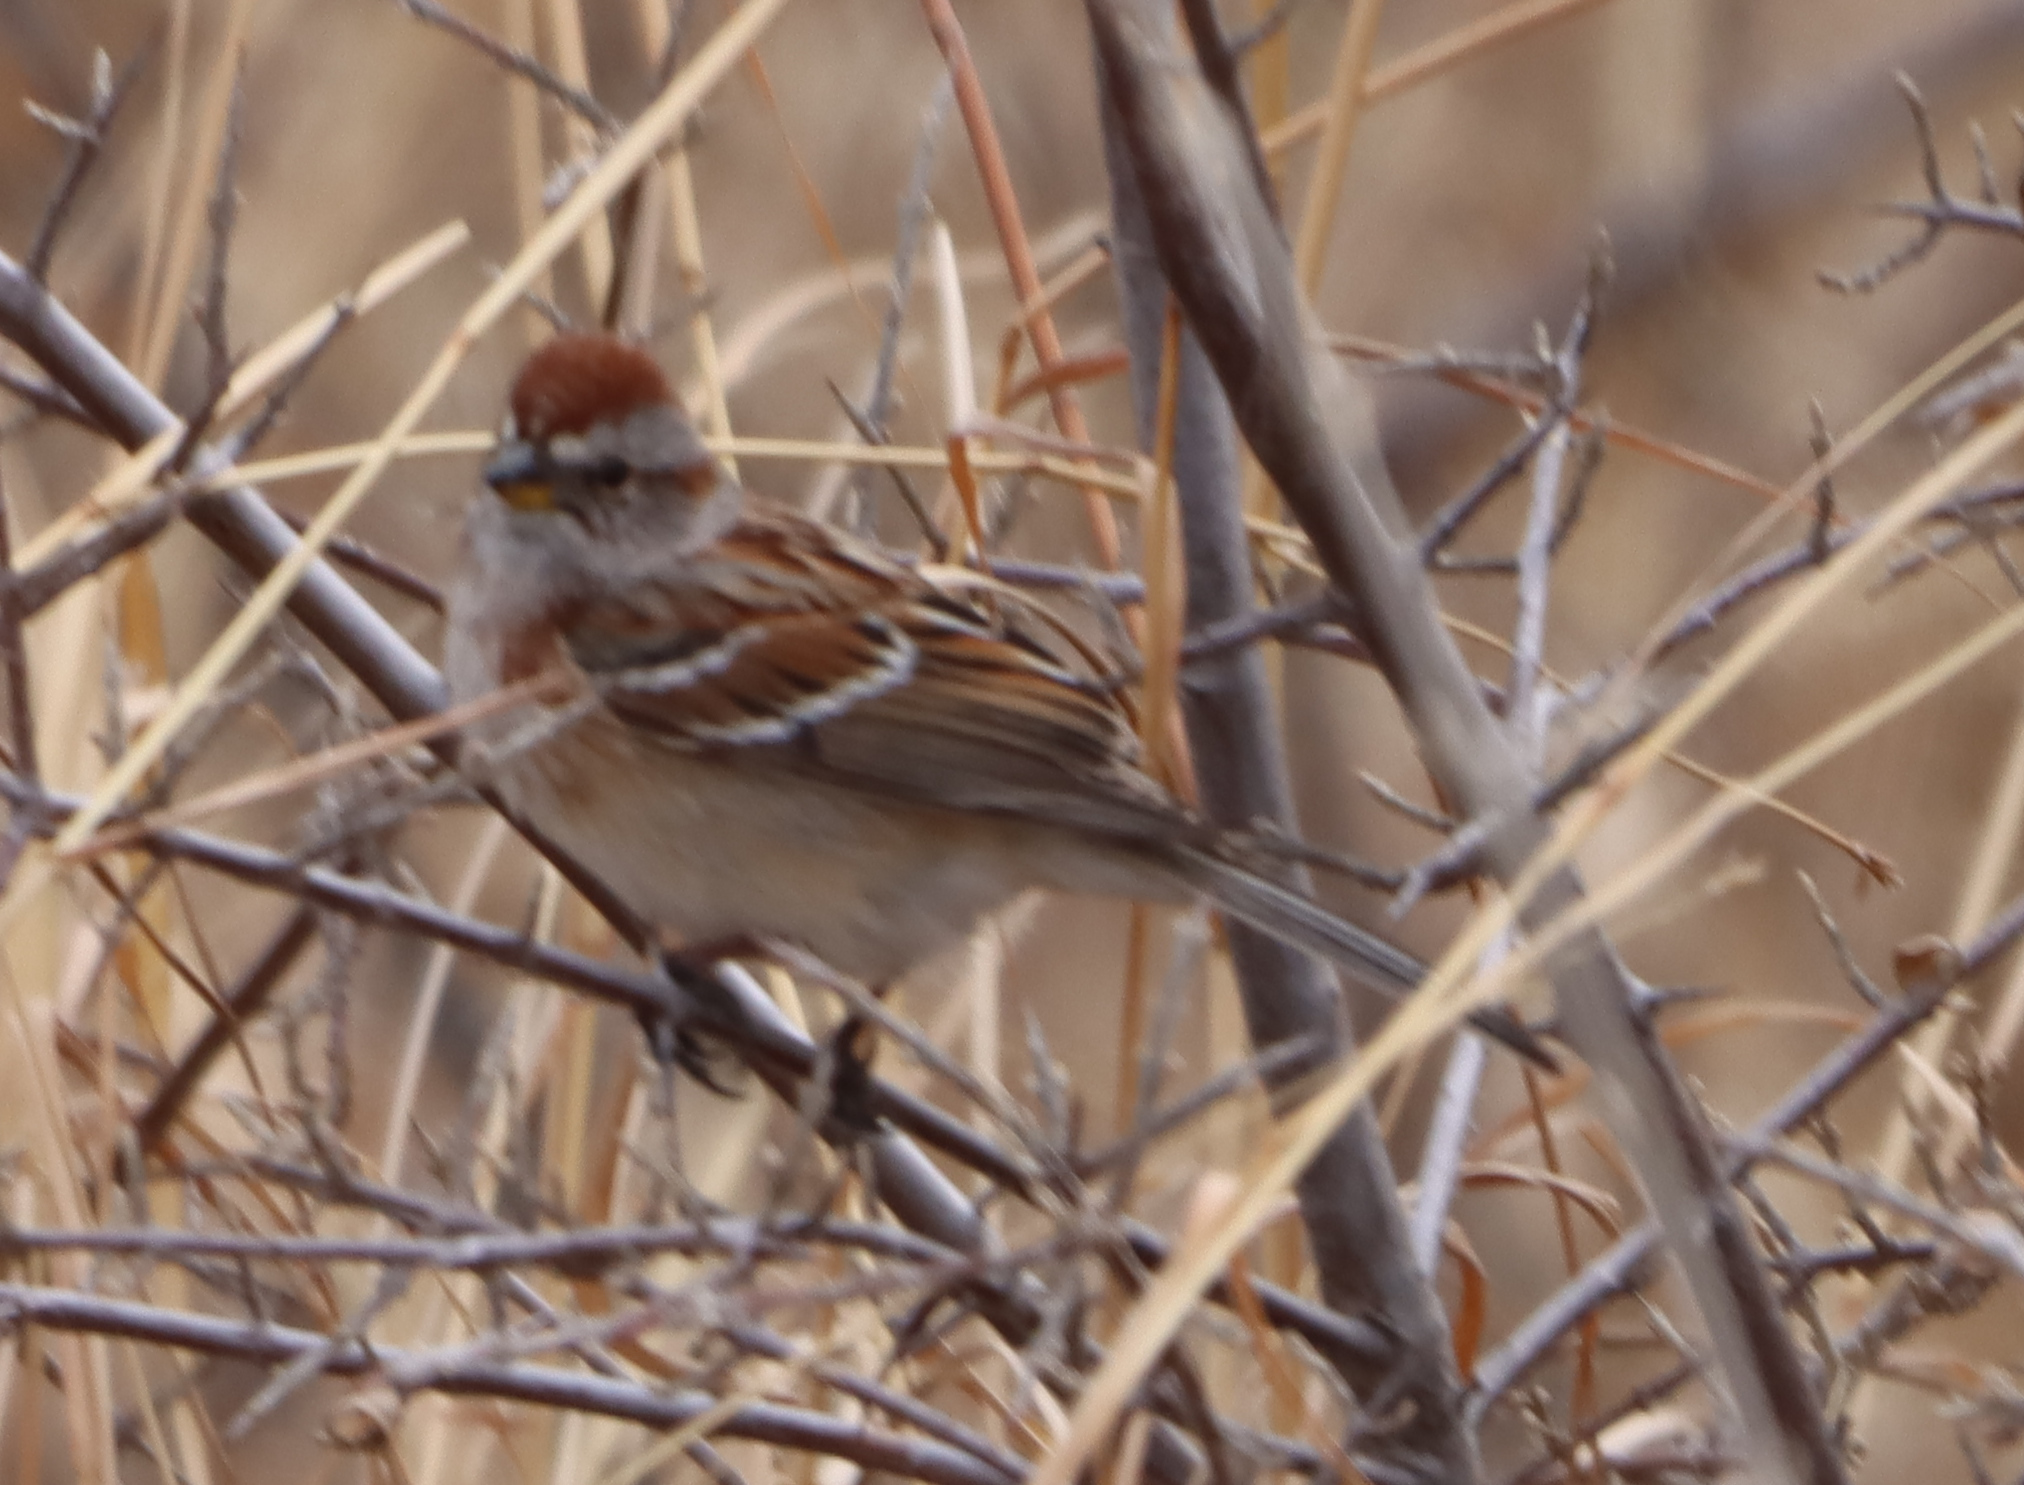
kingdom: Animalia
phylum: Chordata
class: Aves
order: Passeriformes
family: Passerellidae
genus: Spizelloides
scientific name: Spizelloides arborea
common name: American tree sparrow
